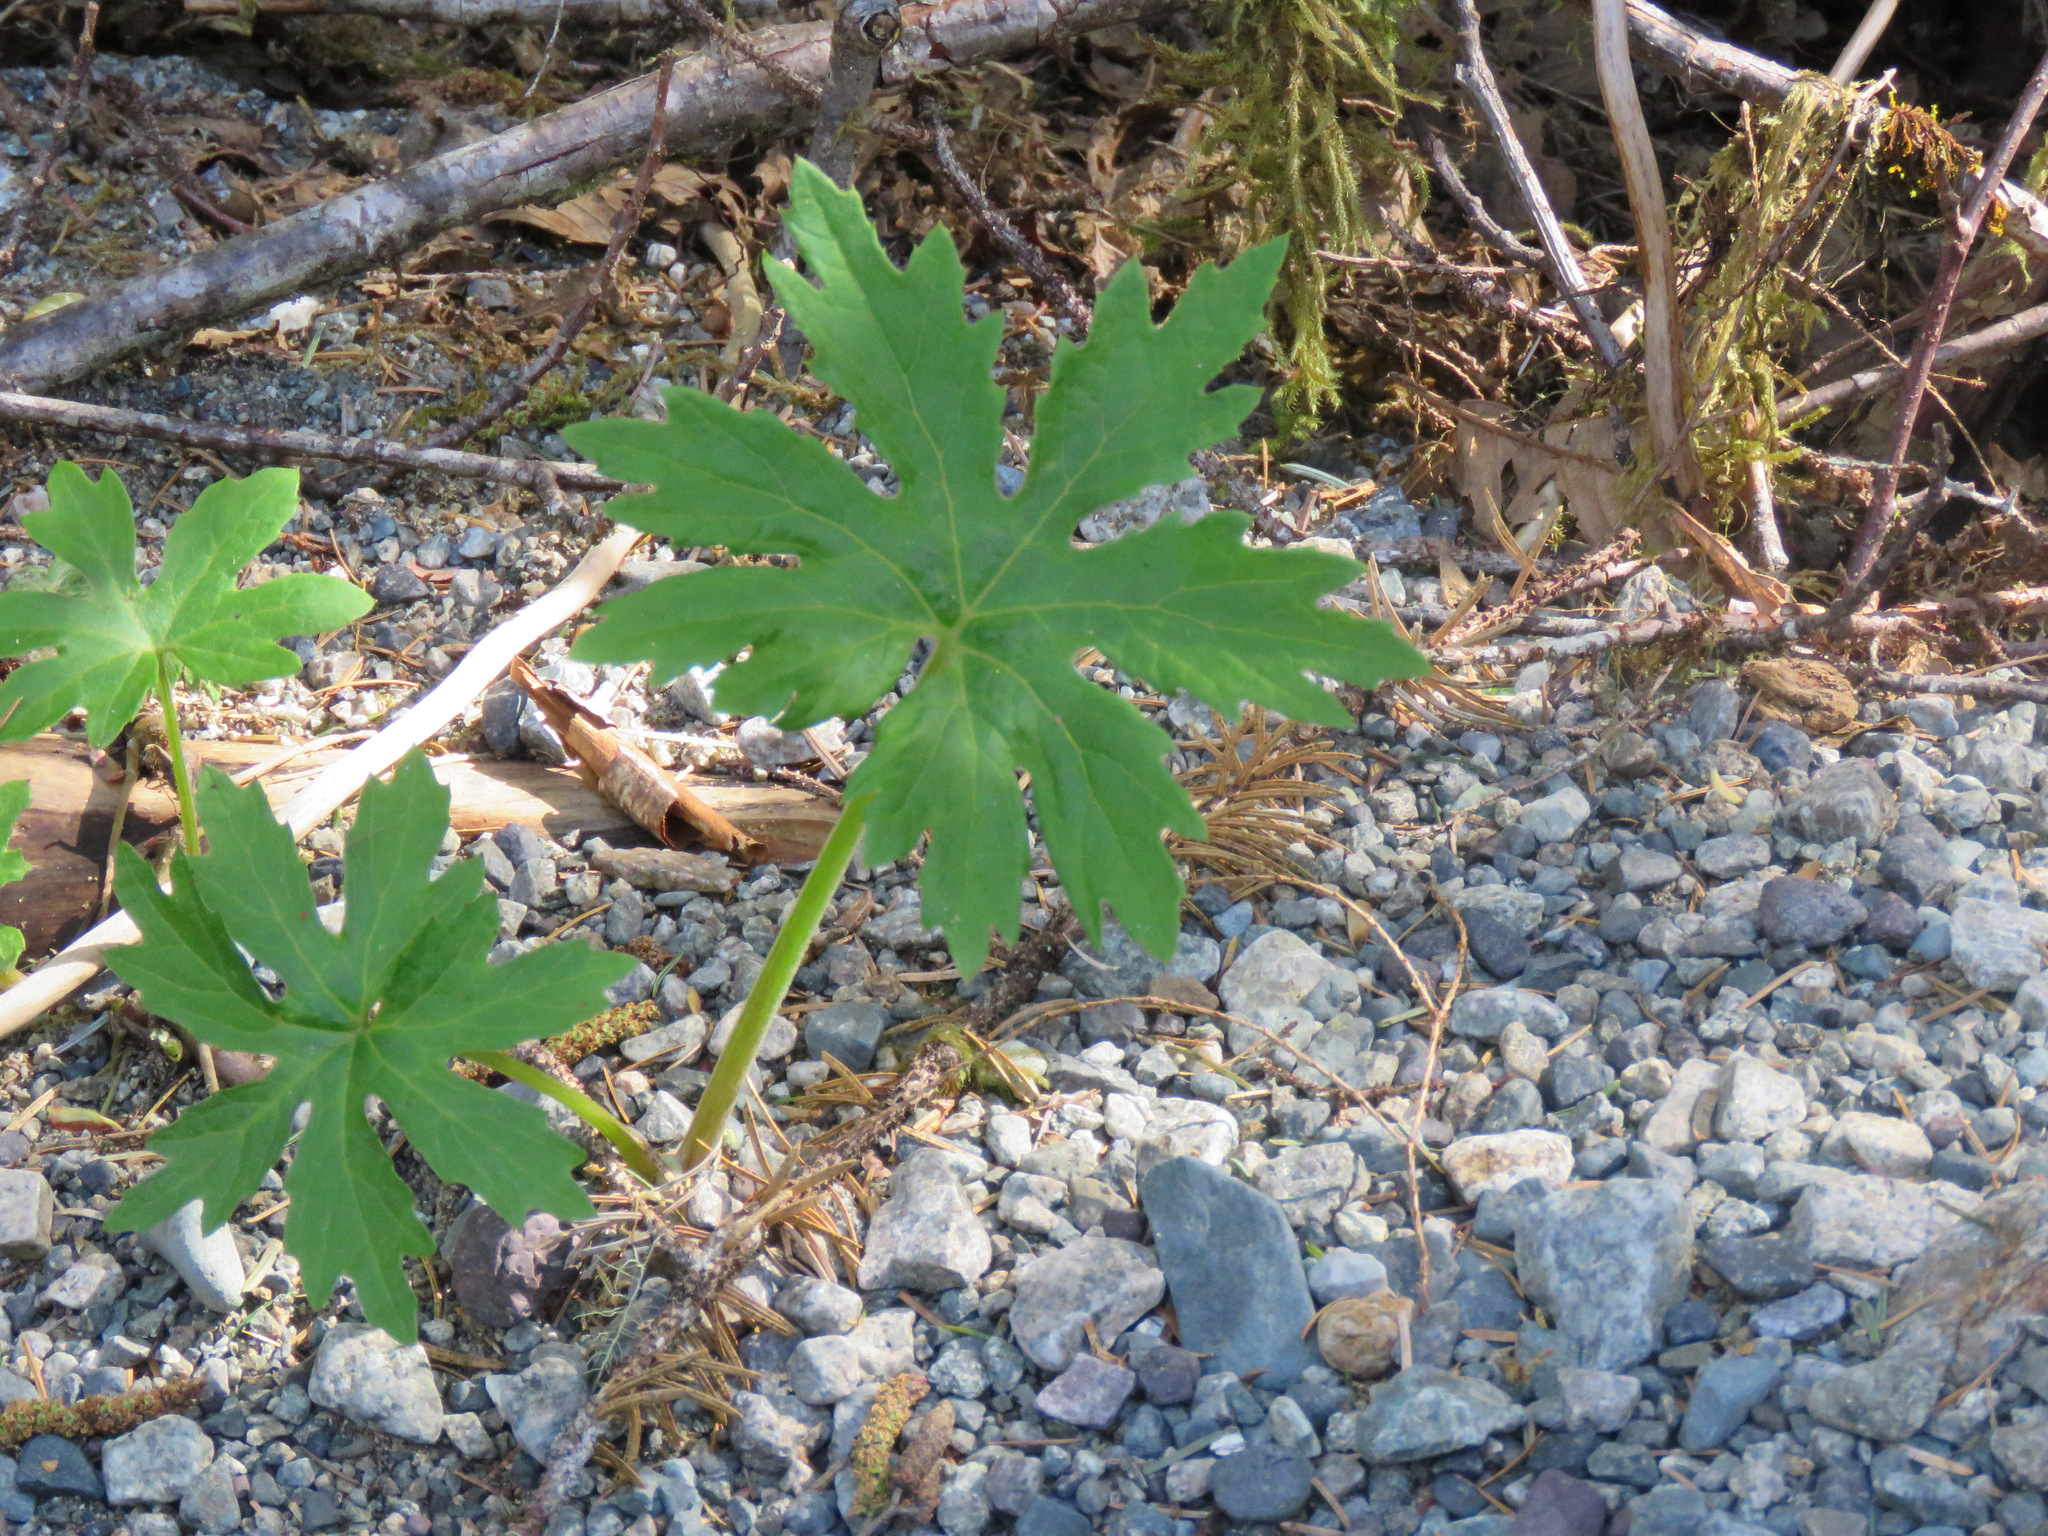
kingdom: Plantae
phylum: Tracheophyta
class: Magnoliopsida
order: Asterales
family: Asteraceae
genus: Petasites
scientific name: Petasites frigidus
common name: Arctic butterbur
